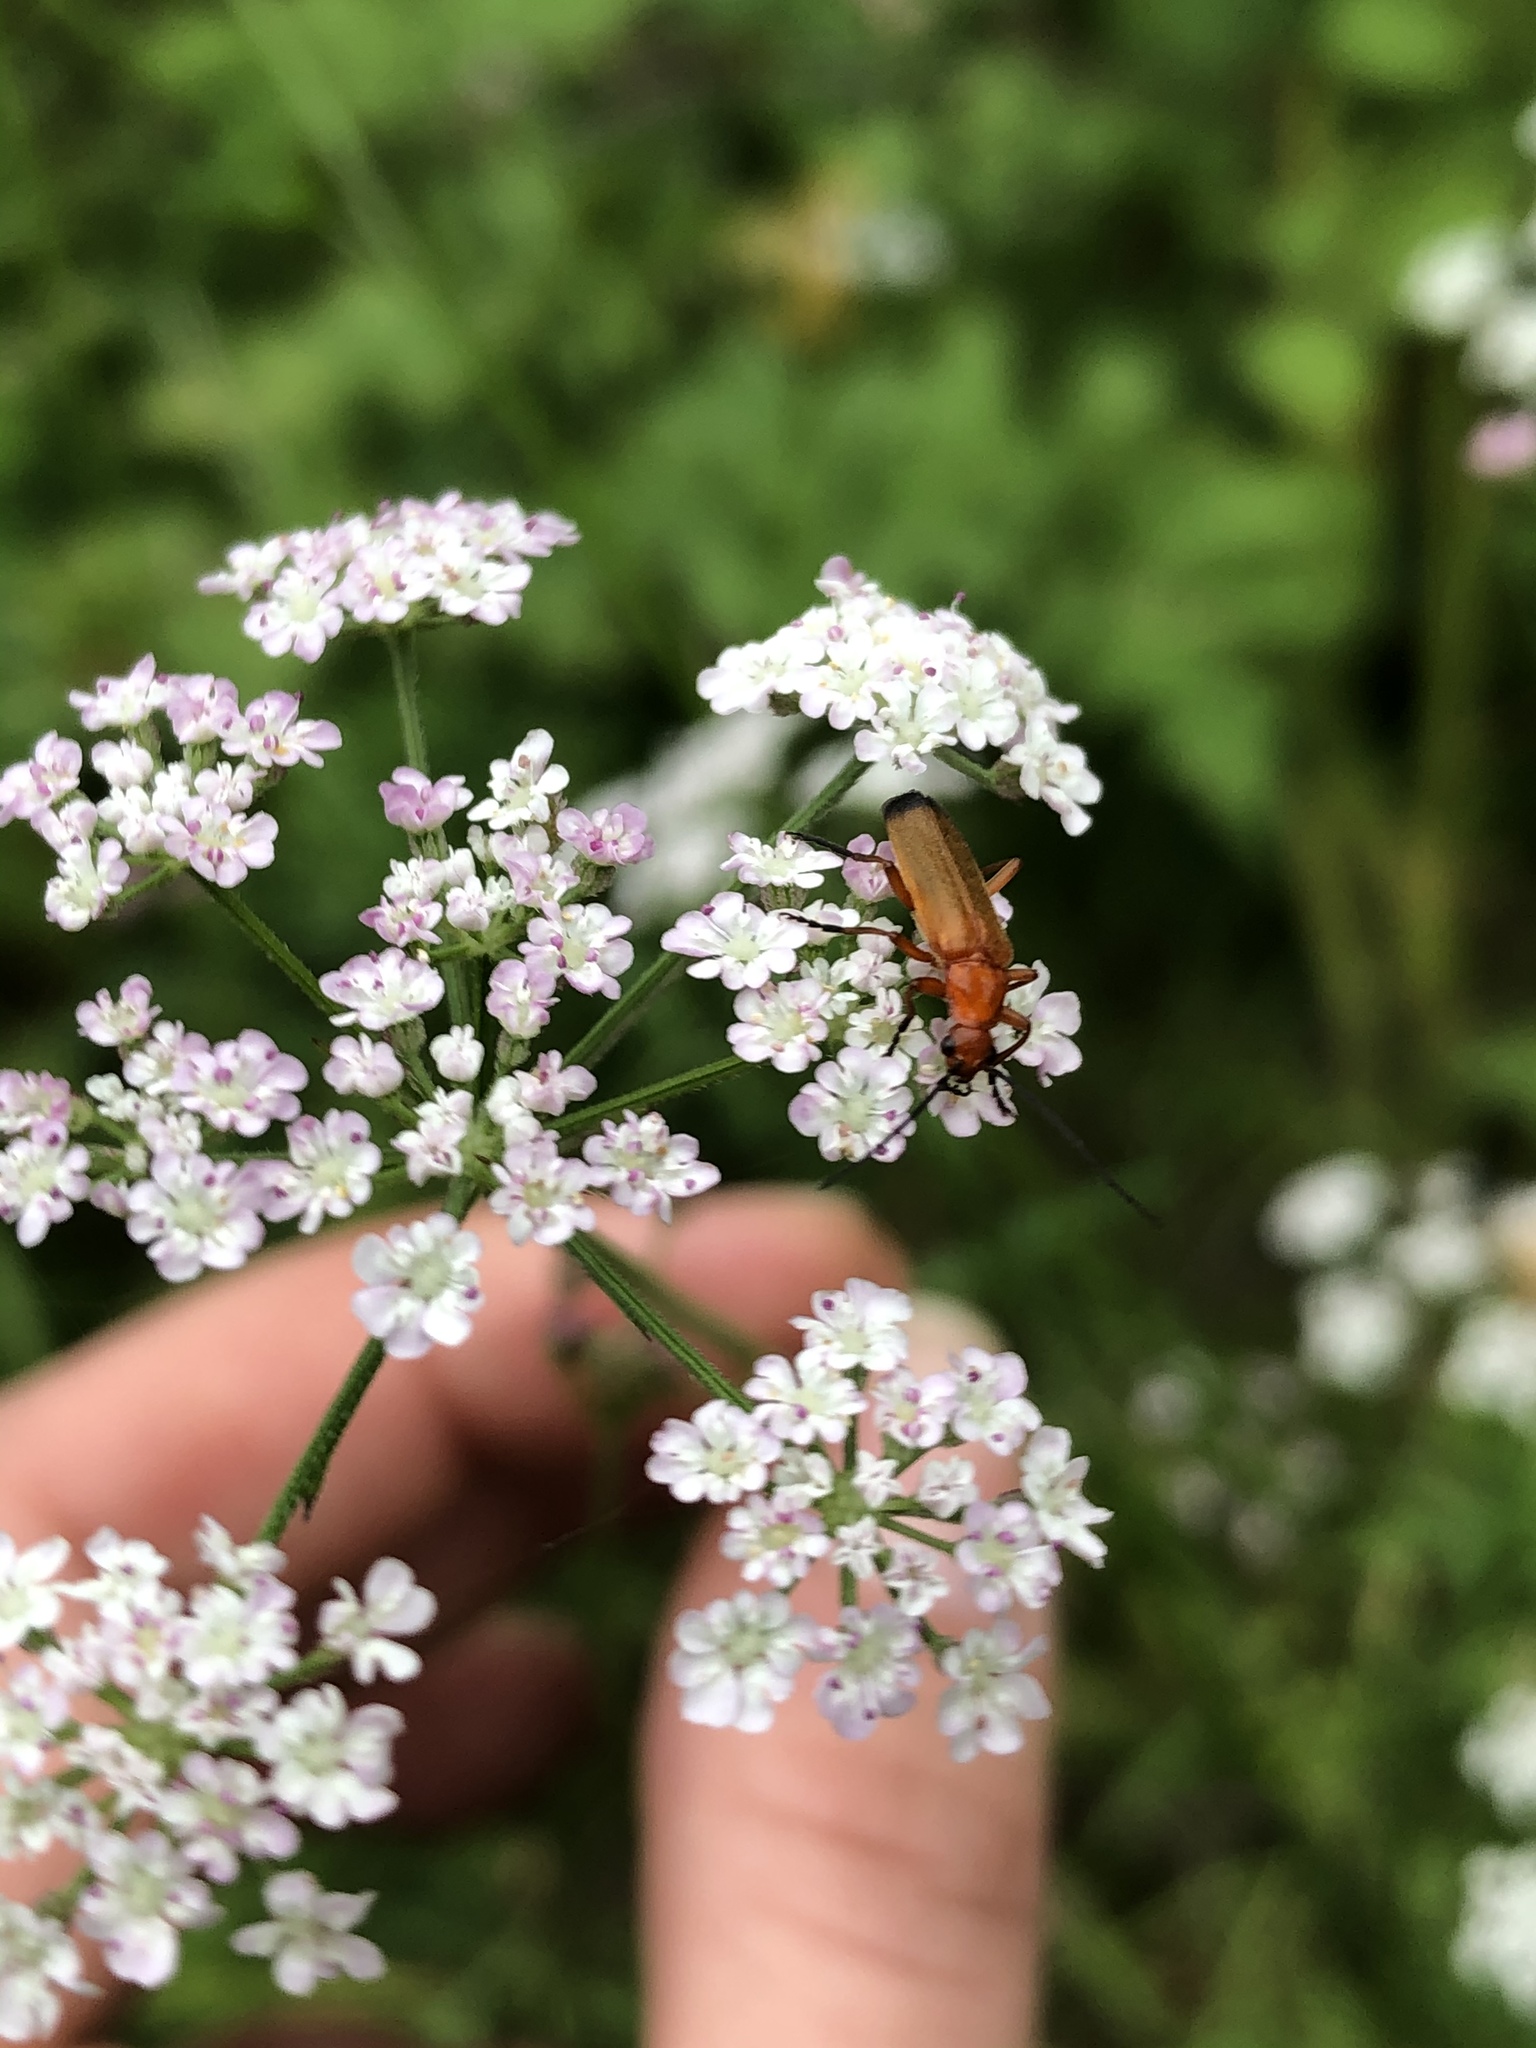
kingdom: Animalia
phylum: Arthropoda
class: Insecta
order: Coleoptera
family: Cantharidae
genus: Rhagonycha
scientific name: Rhagonycha fulva
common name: Common red soldier beetle
